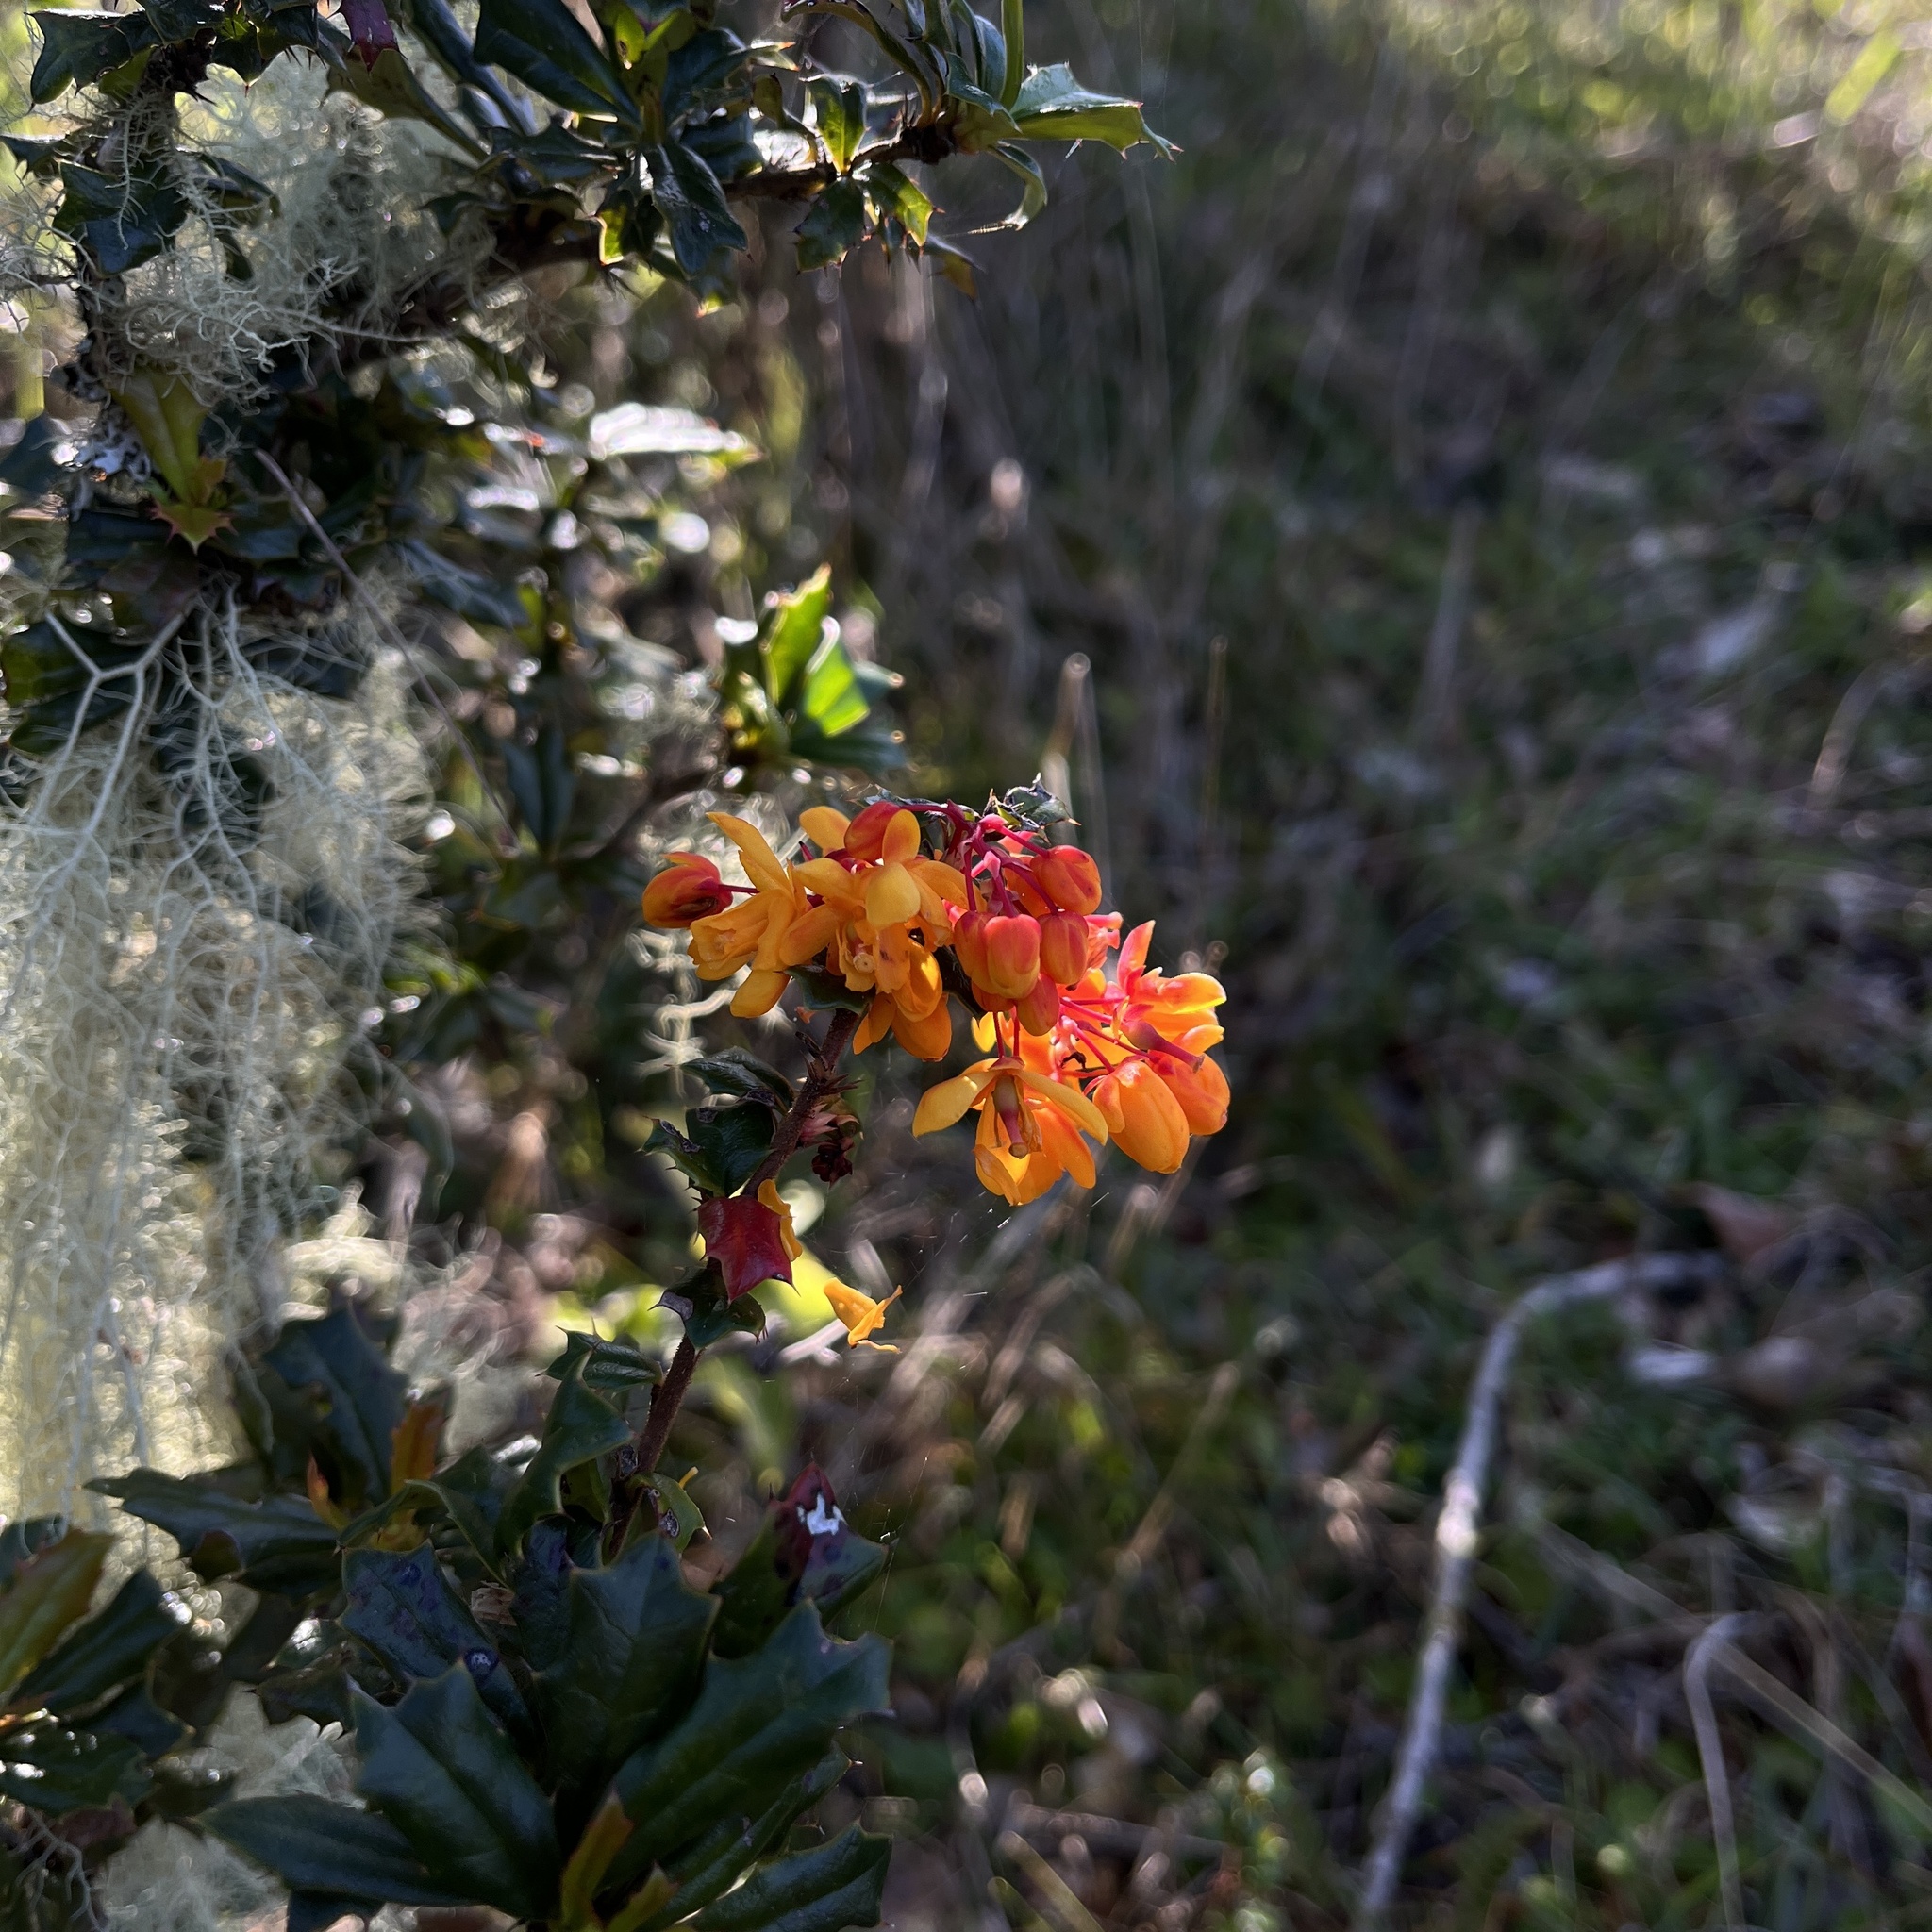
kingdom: Plantae
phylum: Tracheophyta
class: Magnoliopsida
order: Ranunculales
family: Berberidaceae
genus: Berberis
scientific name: Berberis darwinii
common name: Darwin's barberry
